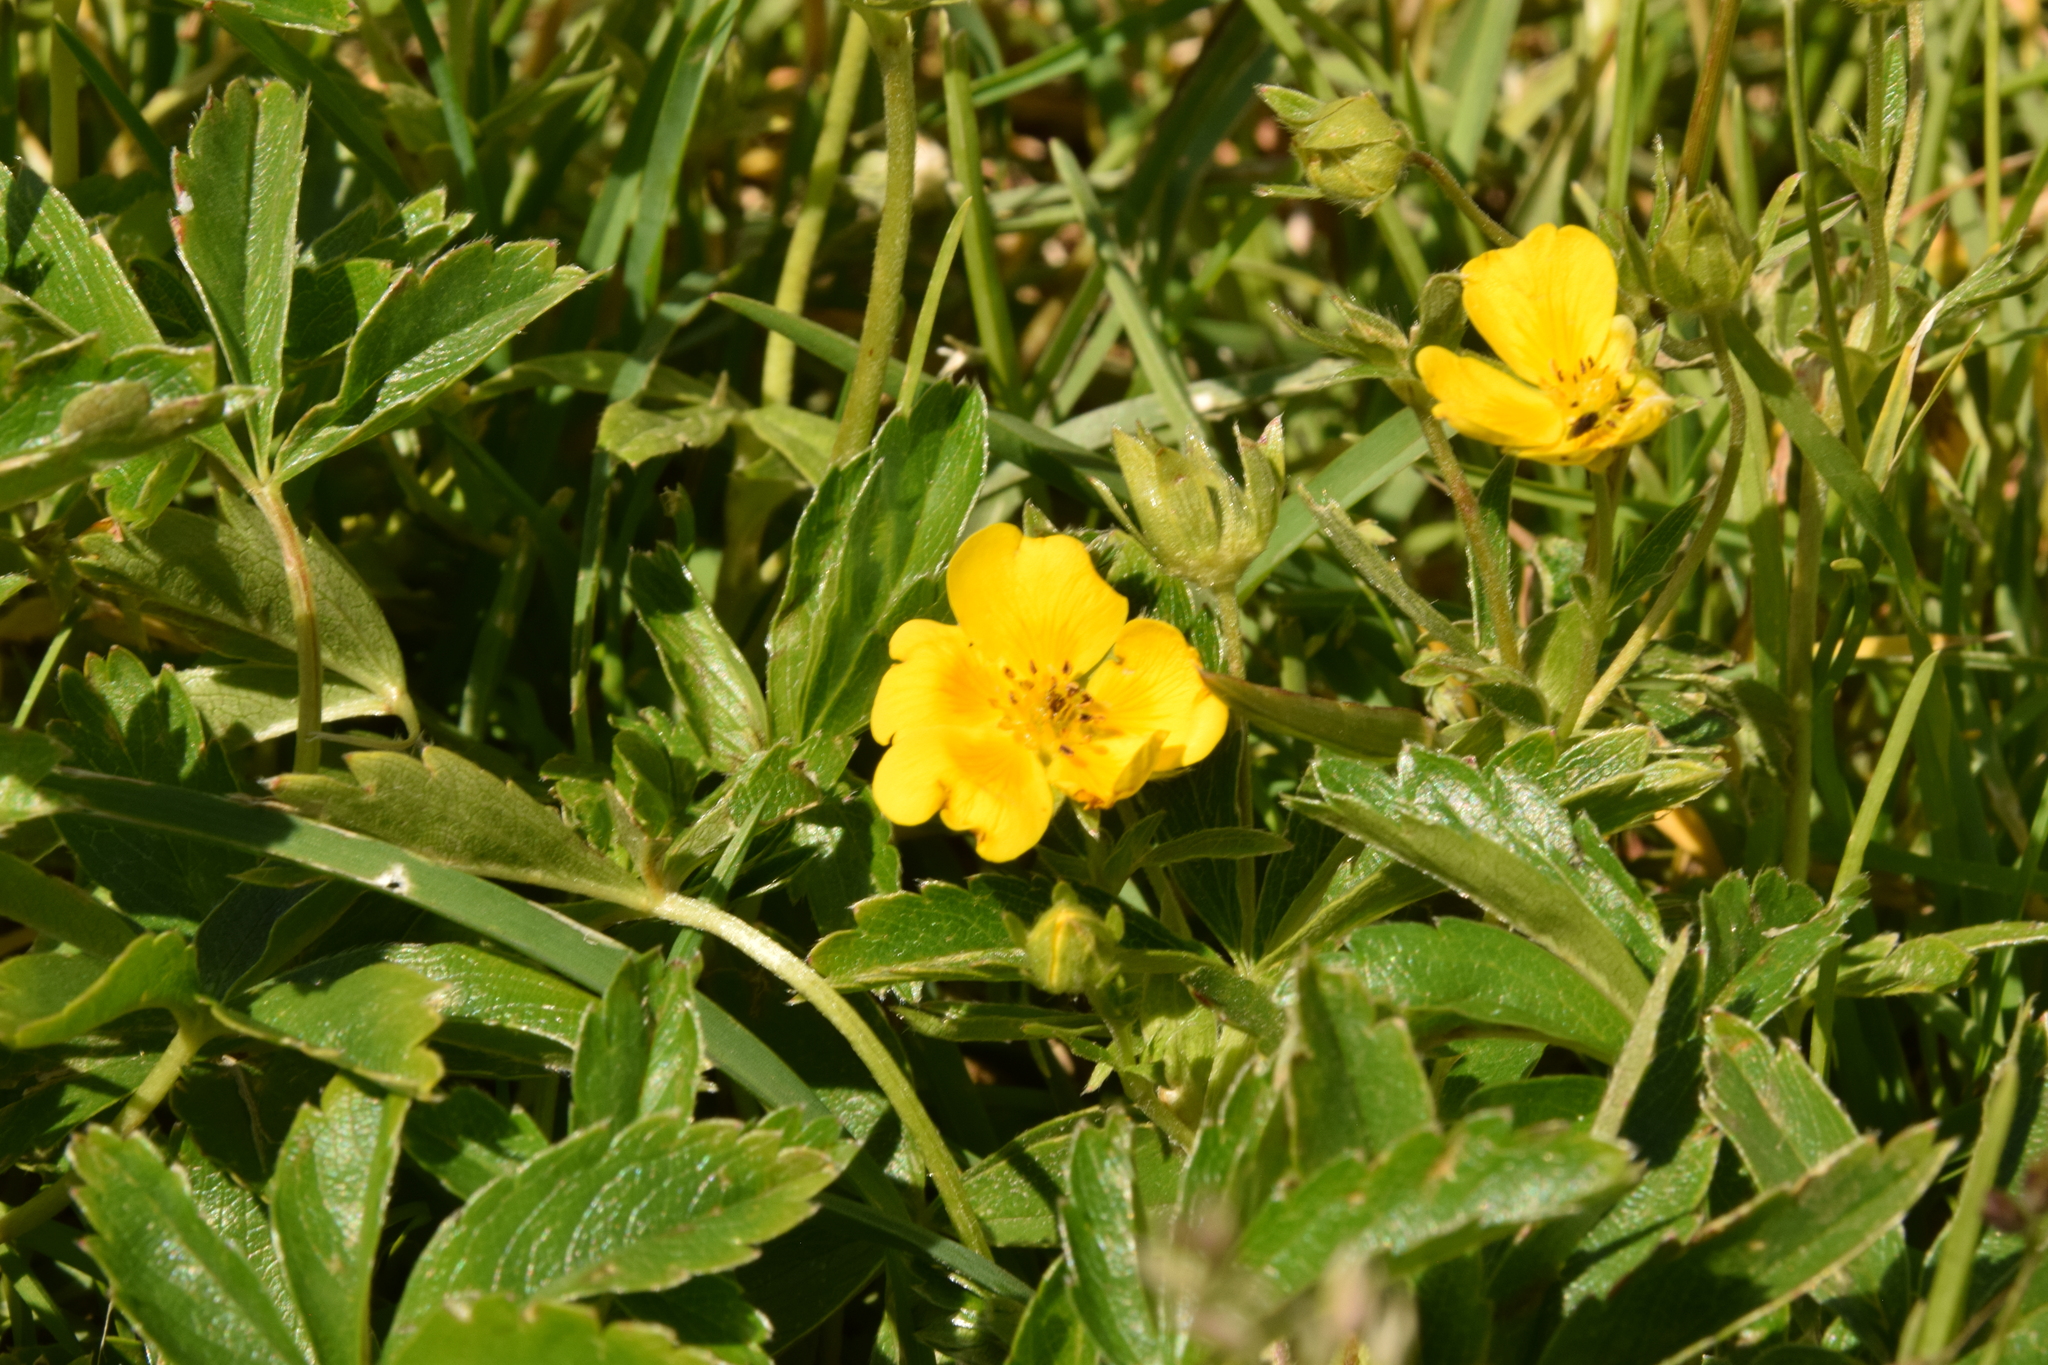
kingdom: Plantae
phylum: Tracheophyta
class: Magnoliopsida
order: Rosales
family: Rosaceae
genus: Potentilla
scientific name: Potentilla aurea
